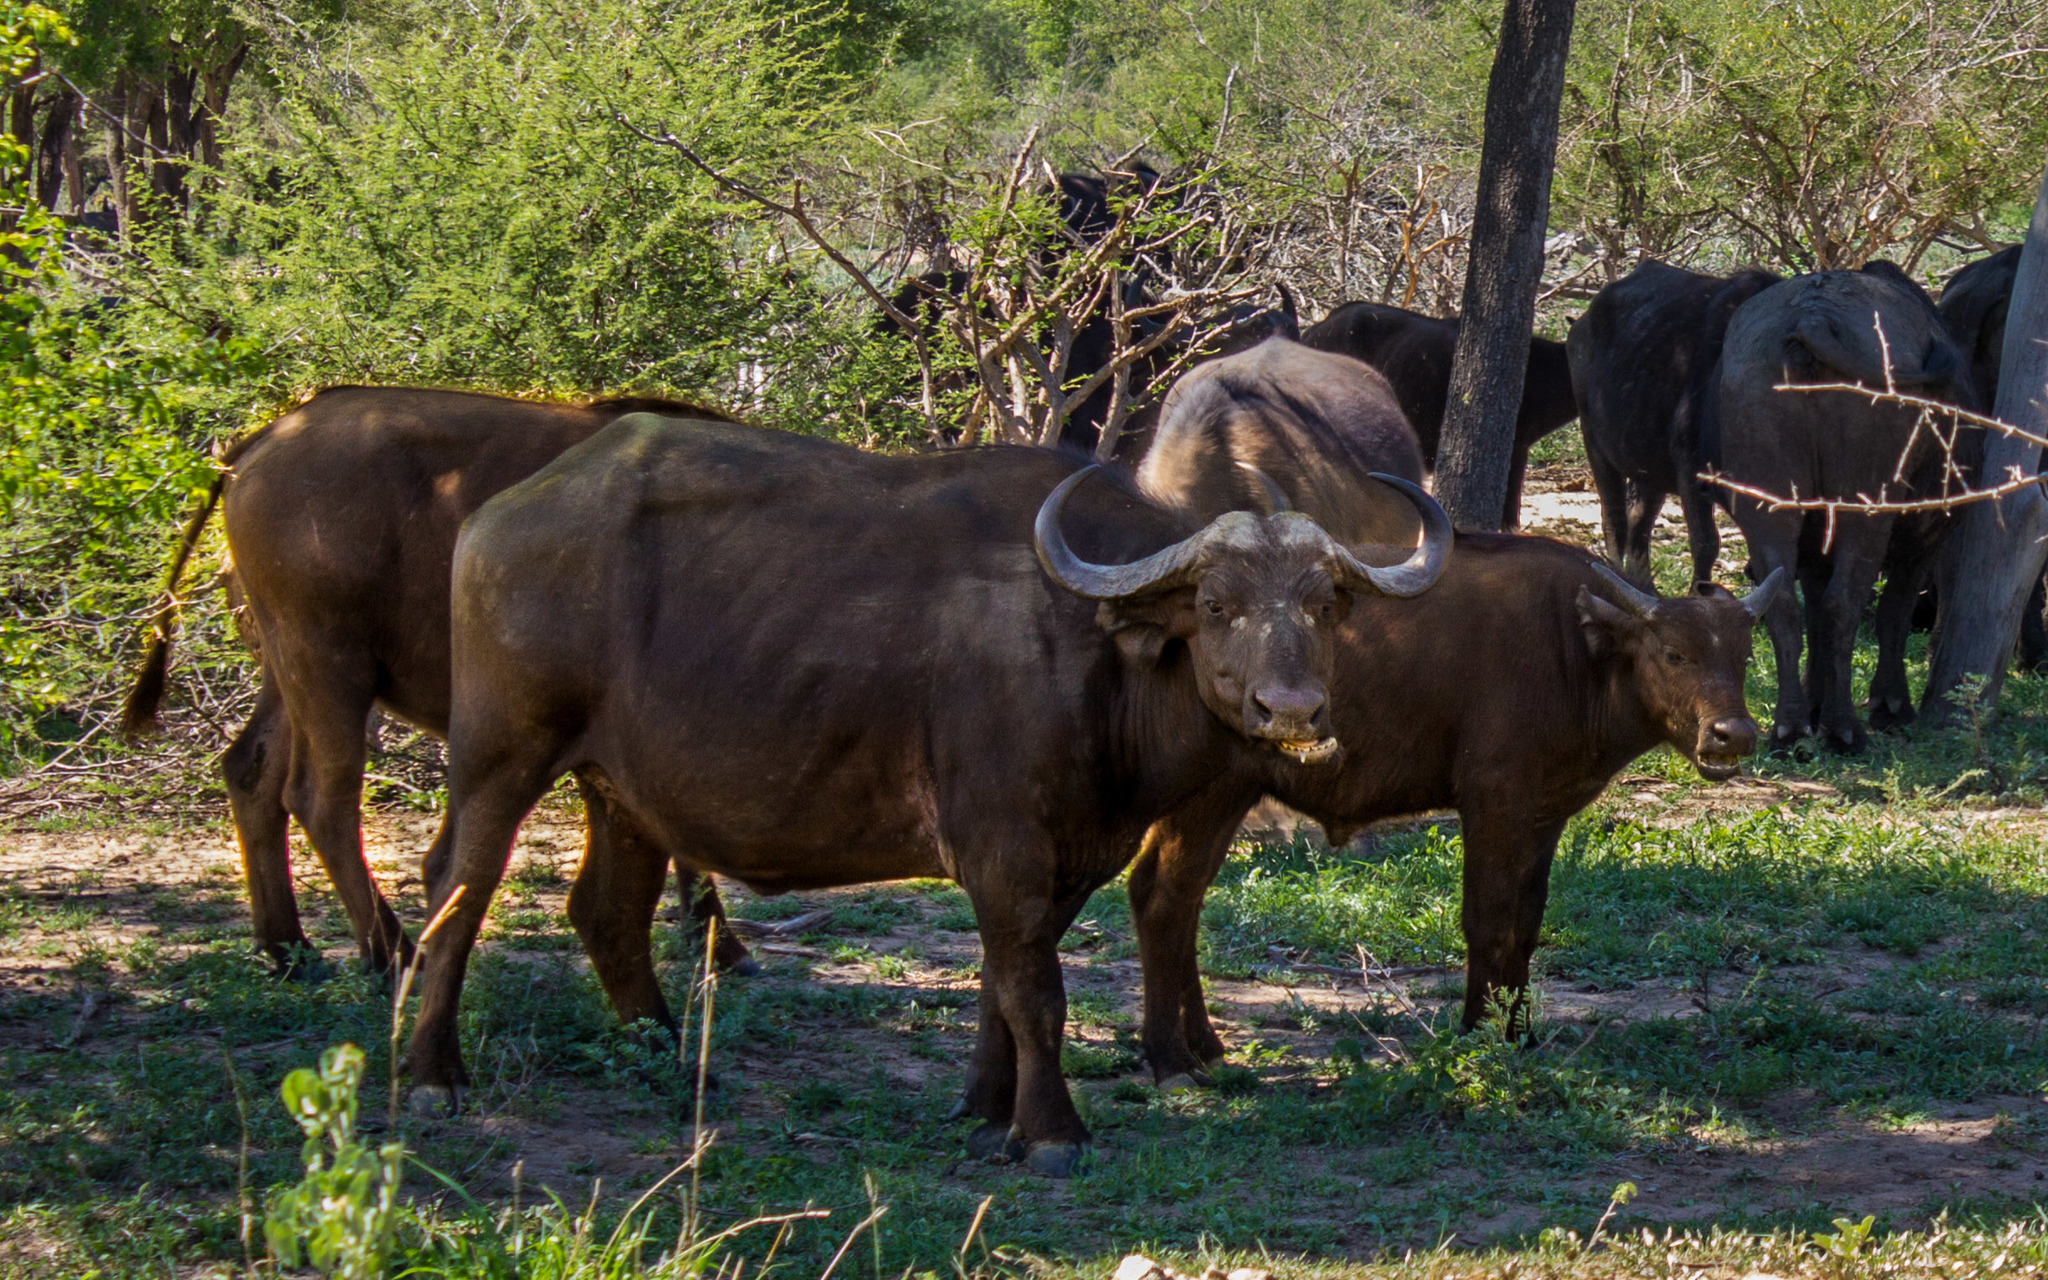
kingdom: Animalia
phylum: Chordata
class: Mammalia
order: Artiodactyla
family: Bovidae
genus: Syncerus
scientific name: Syncerus caffer
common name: African buffalo
